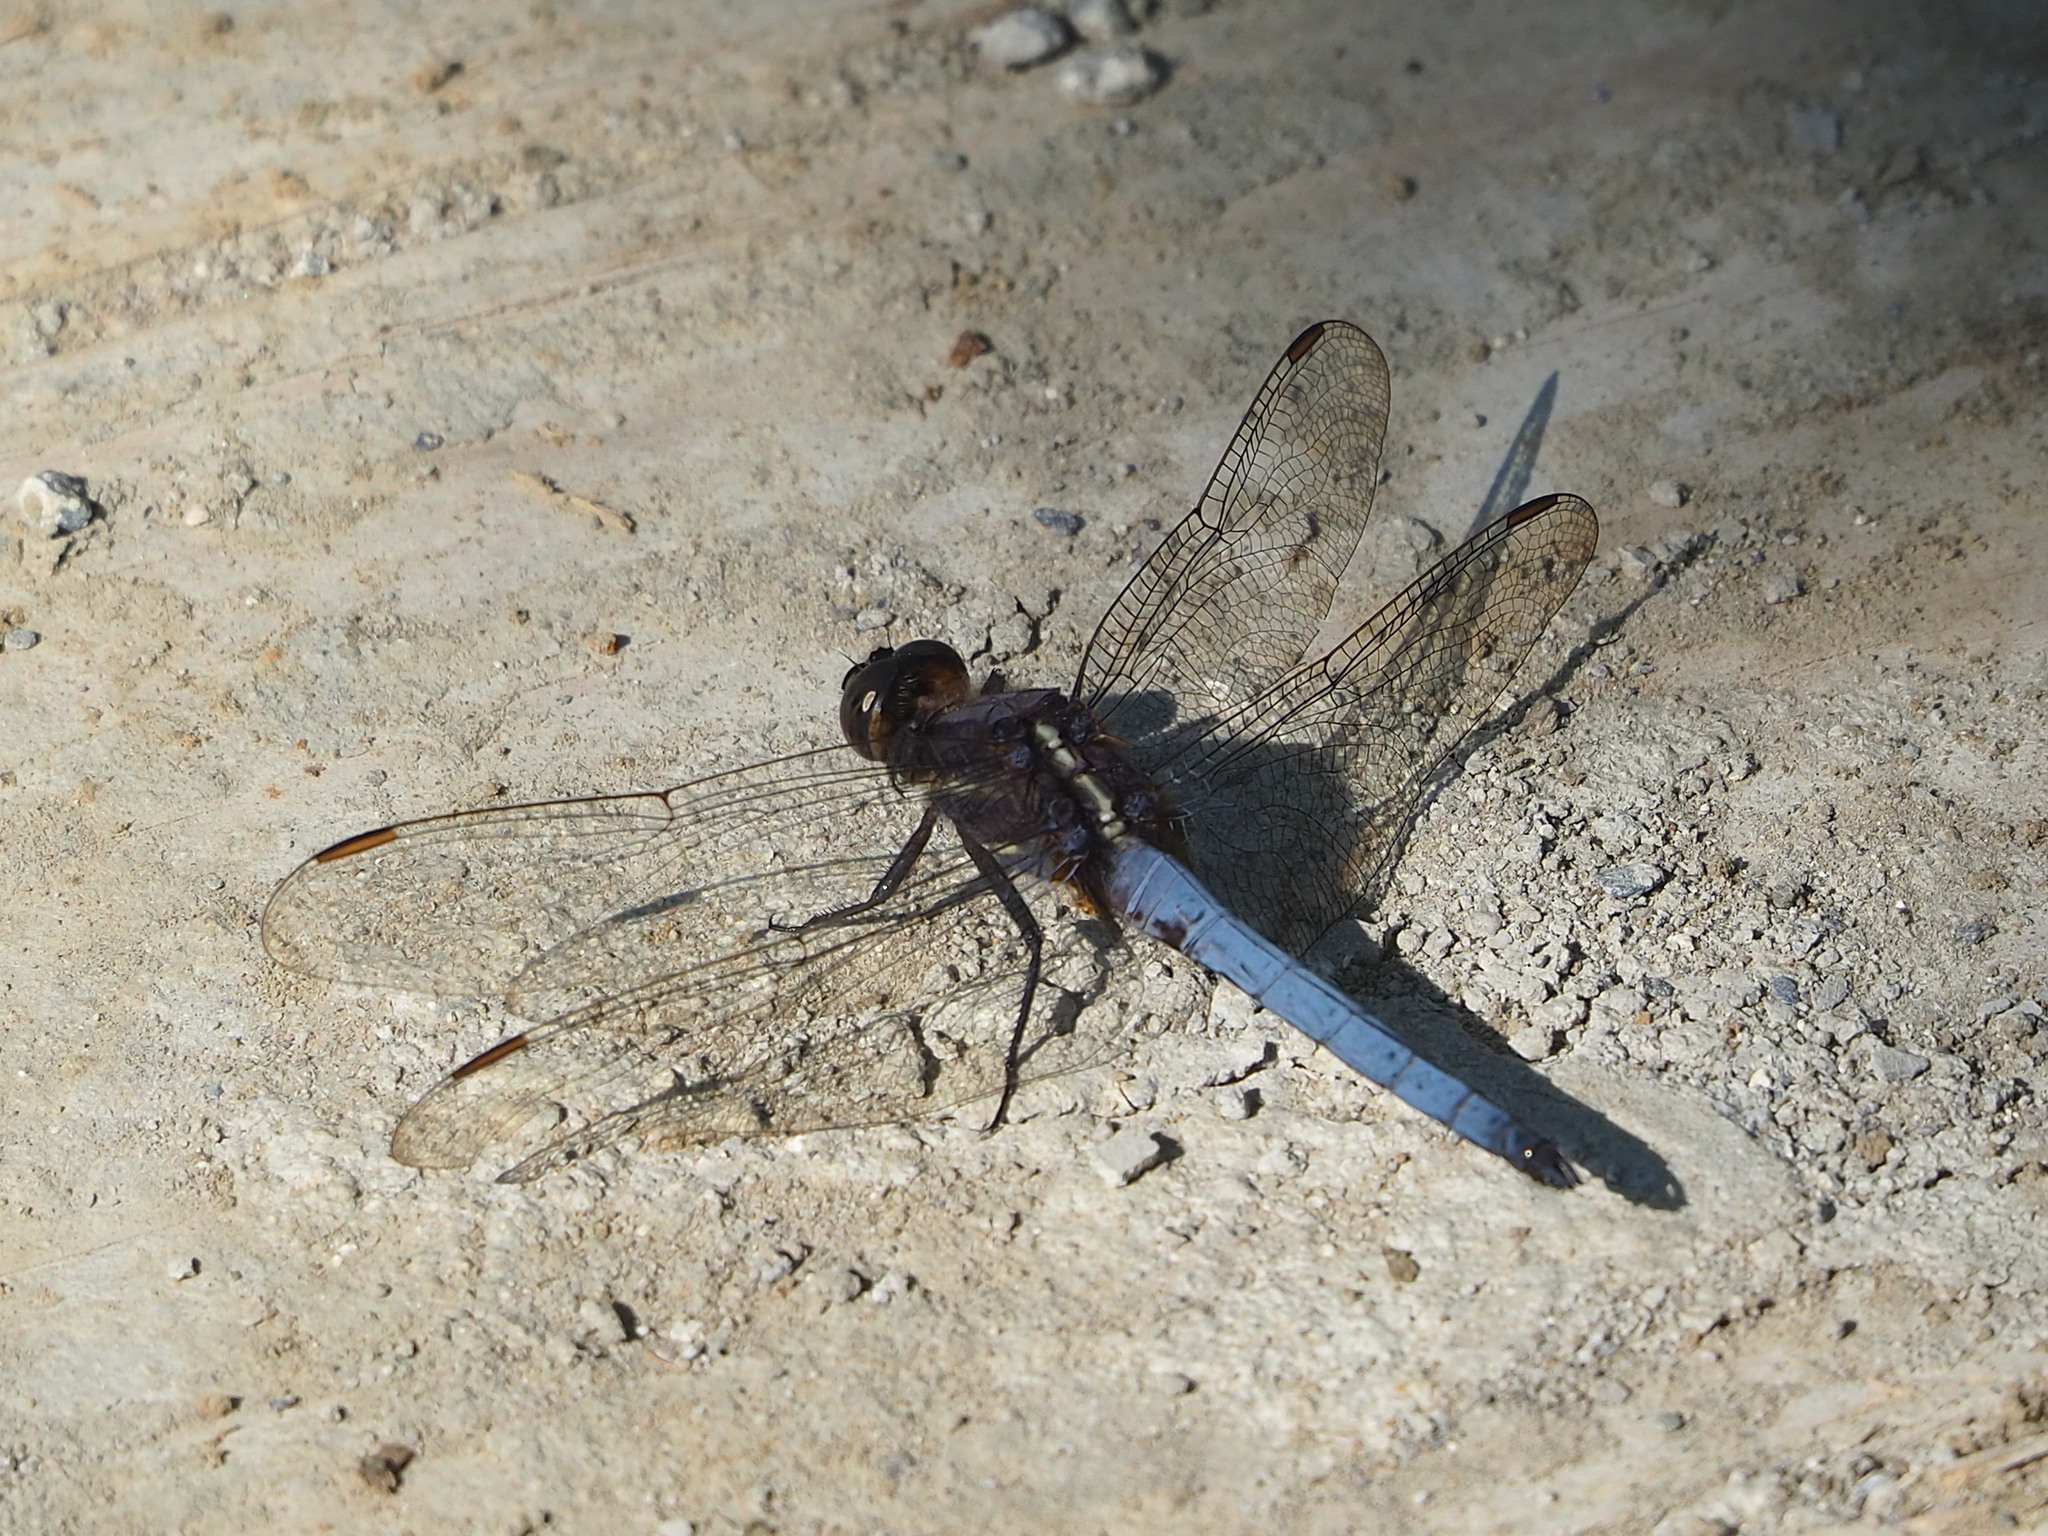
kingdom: Animalia
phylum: Arthropoda
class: Insecta
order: Odonata
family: Libellulidae
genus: Orthetrum
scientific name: Orthetrum glaucum
